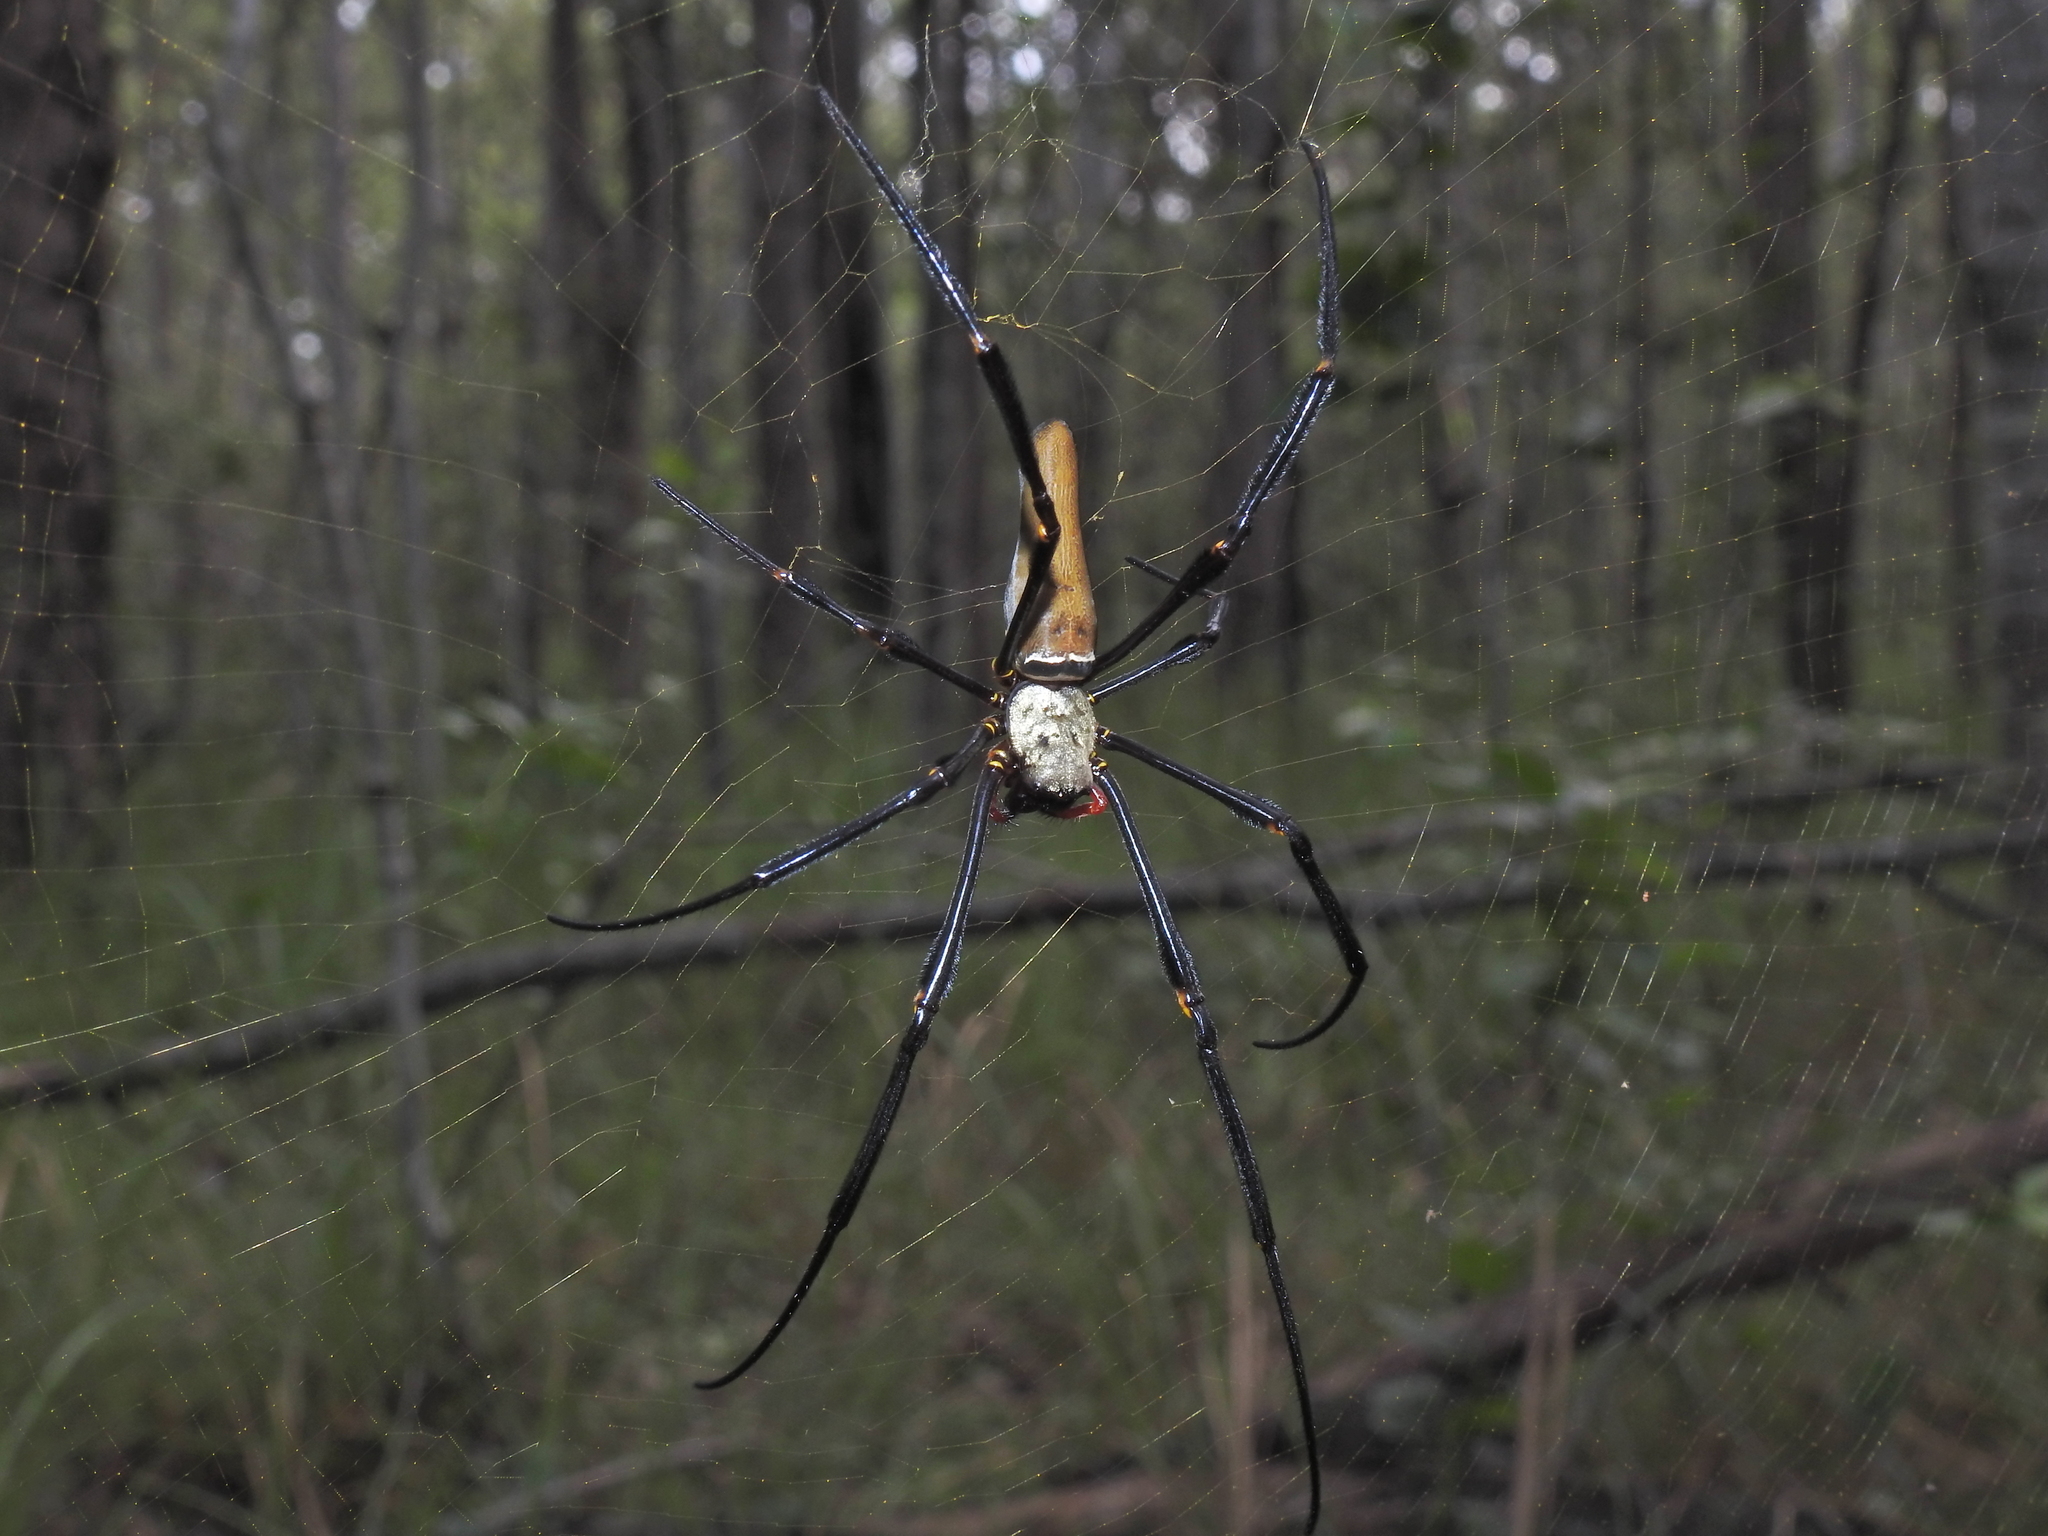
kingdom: Animalia
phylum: Arthropoda
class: Arachnida
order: Araneae
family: Araneidae
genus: Nephila
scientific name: Nephila pilipes
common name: Giant golden orb weaver
